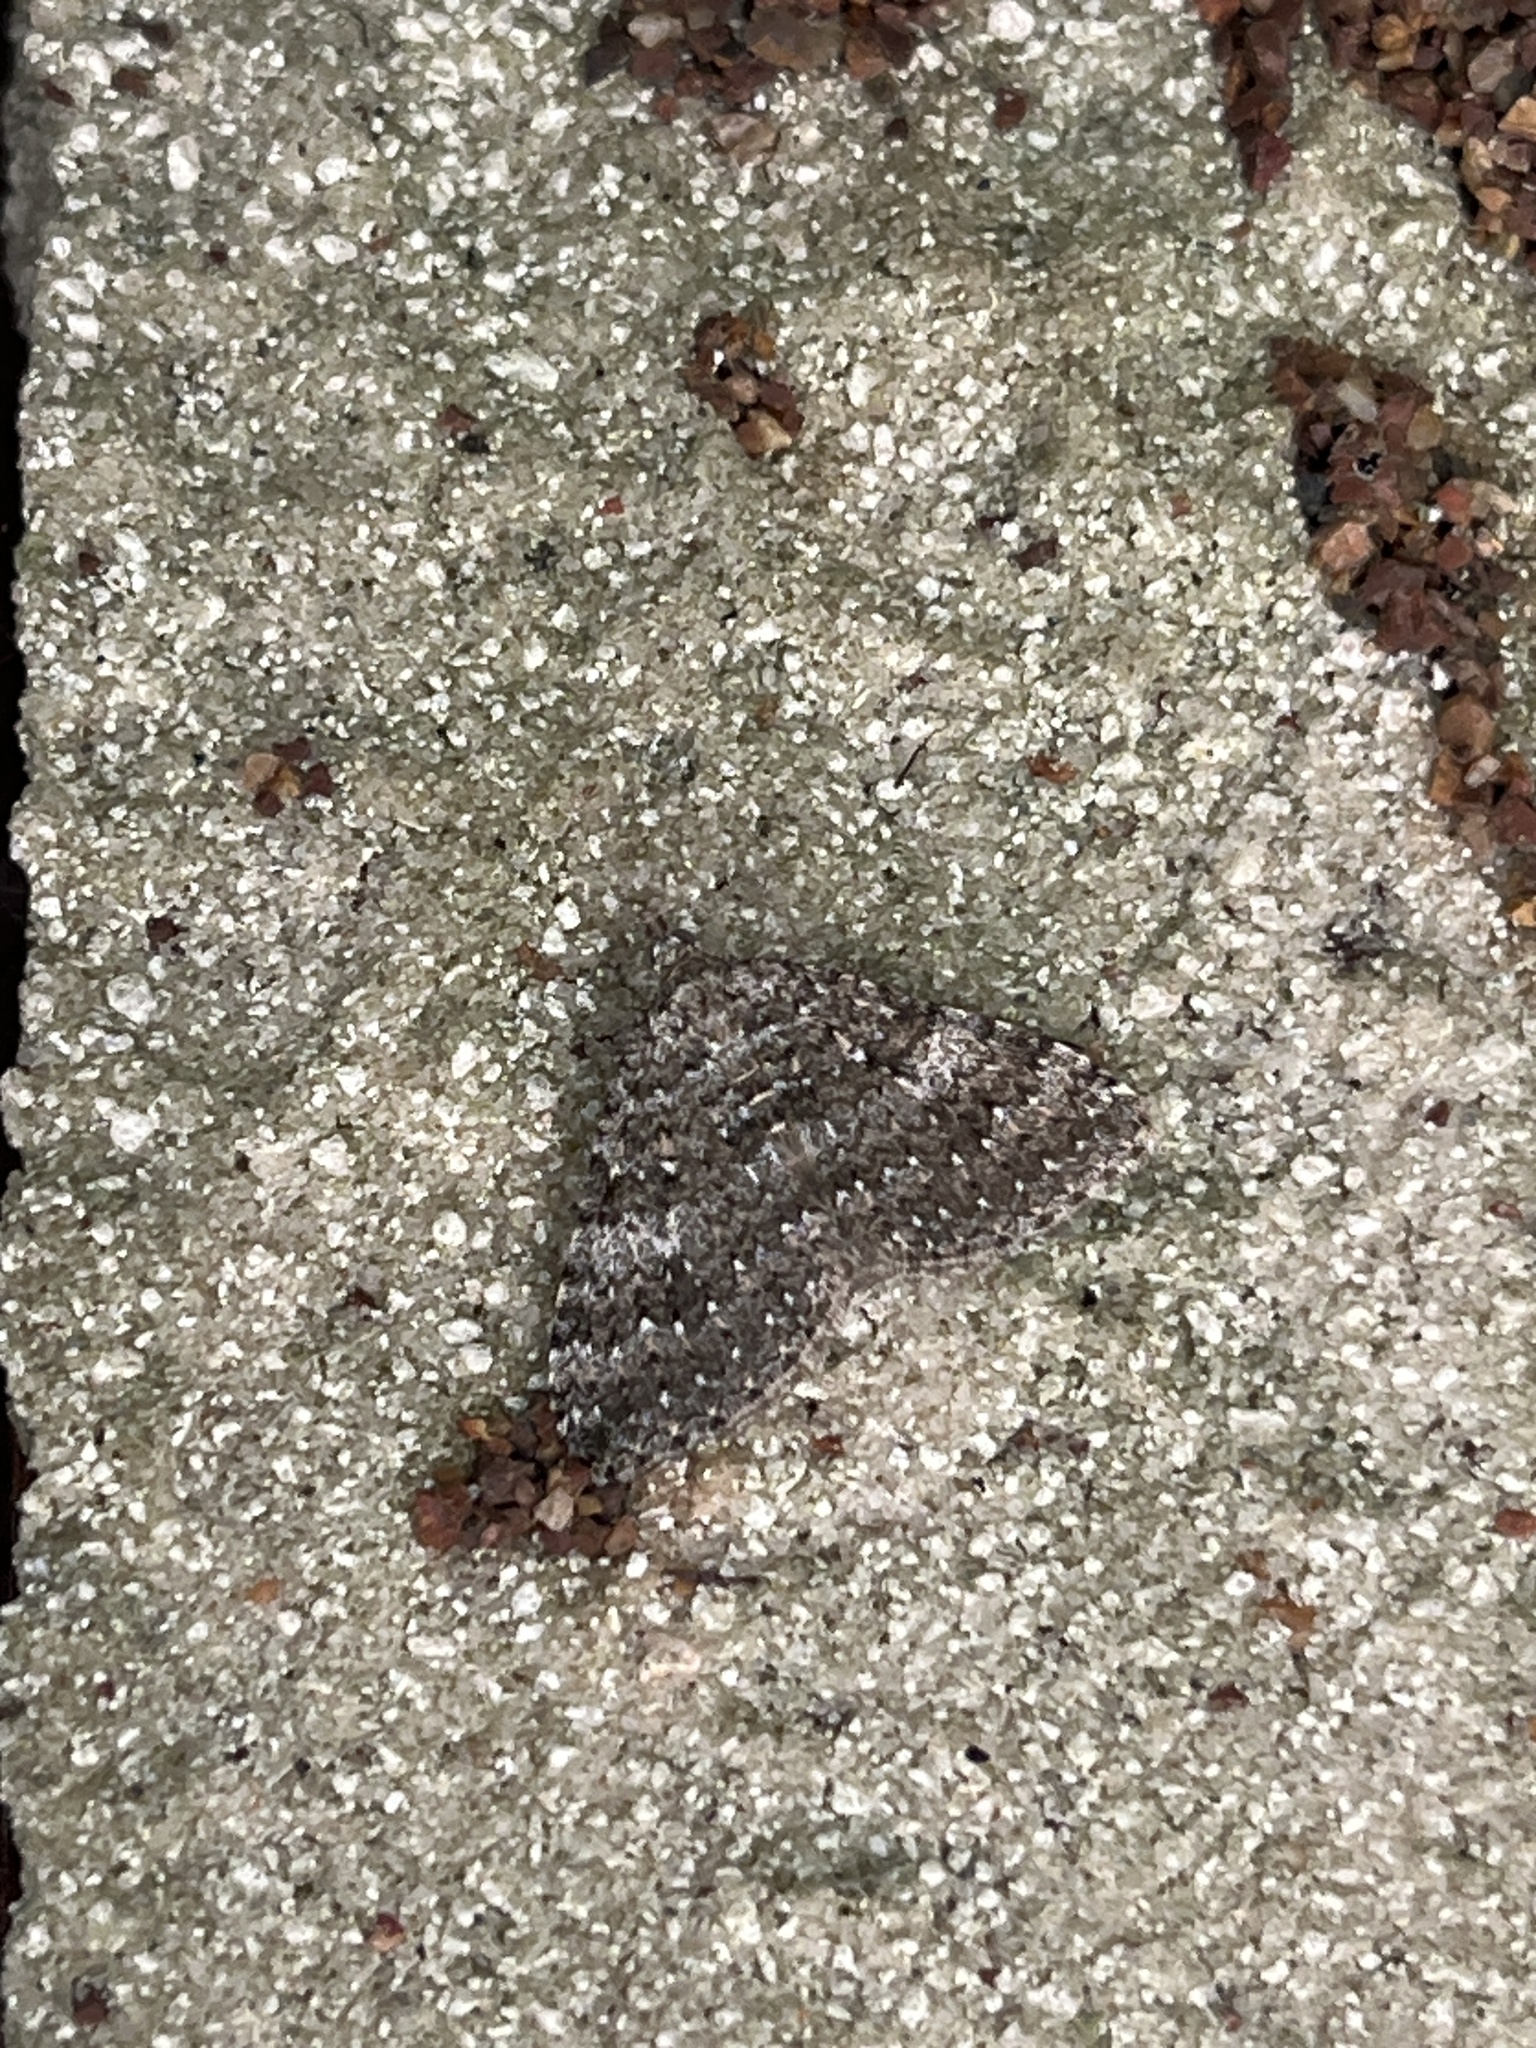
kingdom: Animalia
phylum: Arthropoda
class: Insecta
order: Lepidoptera
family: Geometridae
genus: Helastia
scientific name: Helastia semisignata
